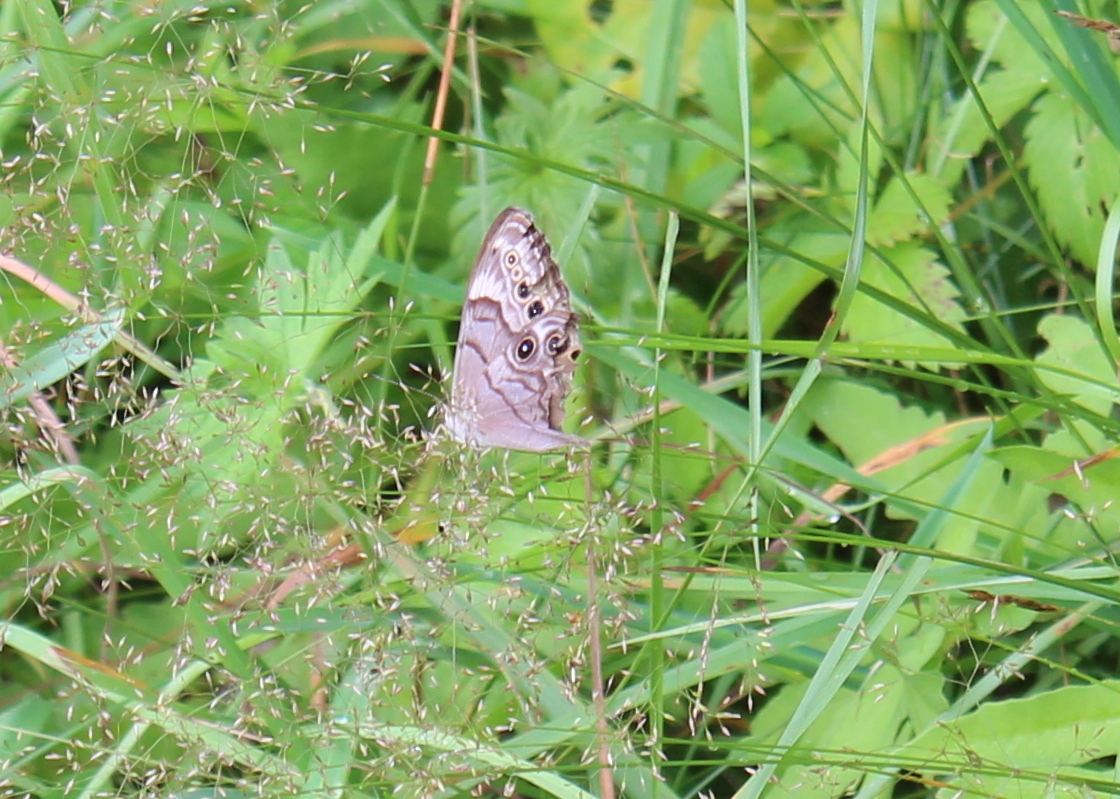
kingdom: Animalia
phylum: Arthropoda
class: Insecta
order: Lepidoptera
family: Nymphalidae
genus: Lethe
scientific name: Lethe anthedon
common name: Northern pearly-eye
